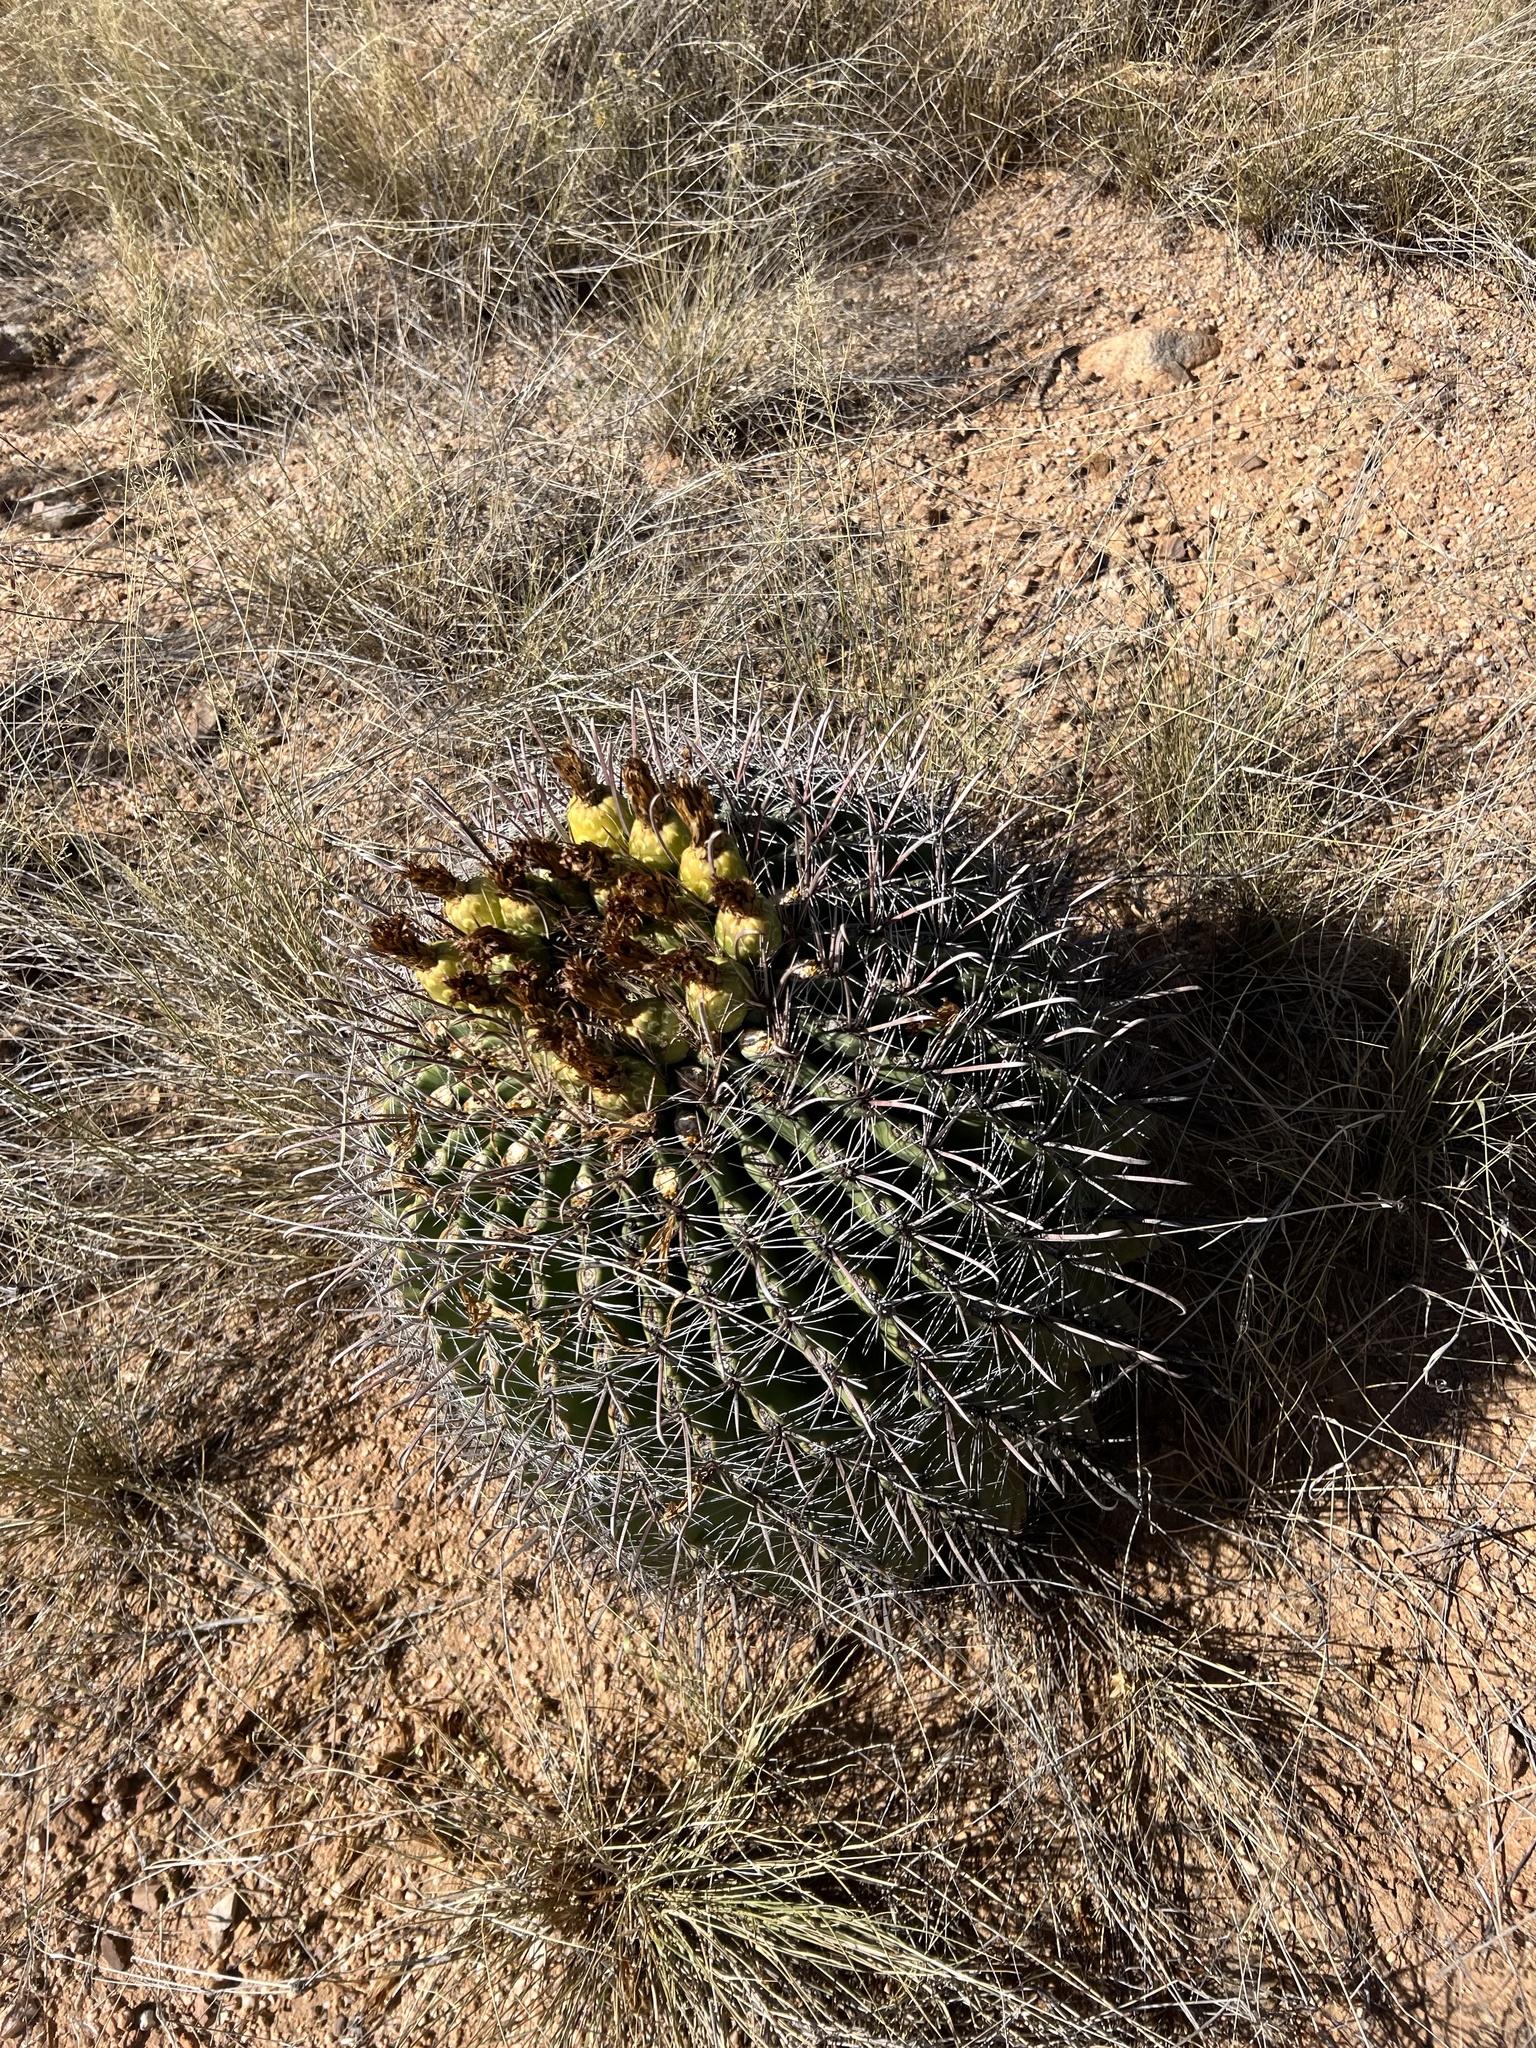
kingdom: Plantae
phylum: Tracheophyta
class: Magnoliopsida
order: Caryophyllales
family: Cactaceae
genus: Ferocactus
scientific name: Ferocactus wislizeni
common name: Candy barrel cactus
